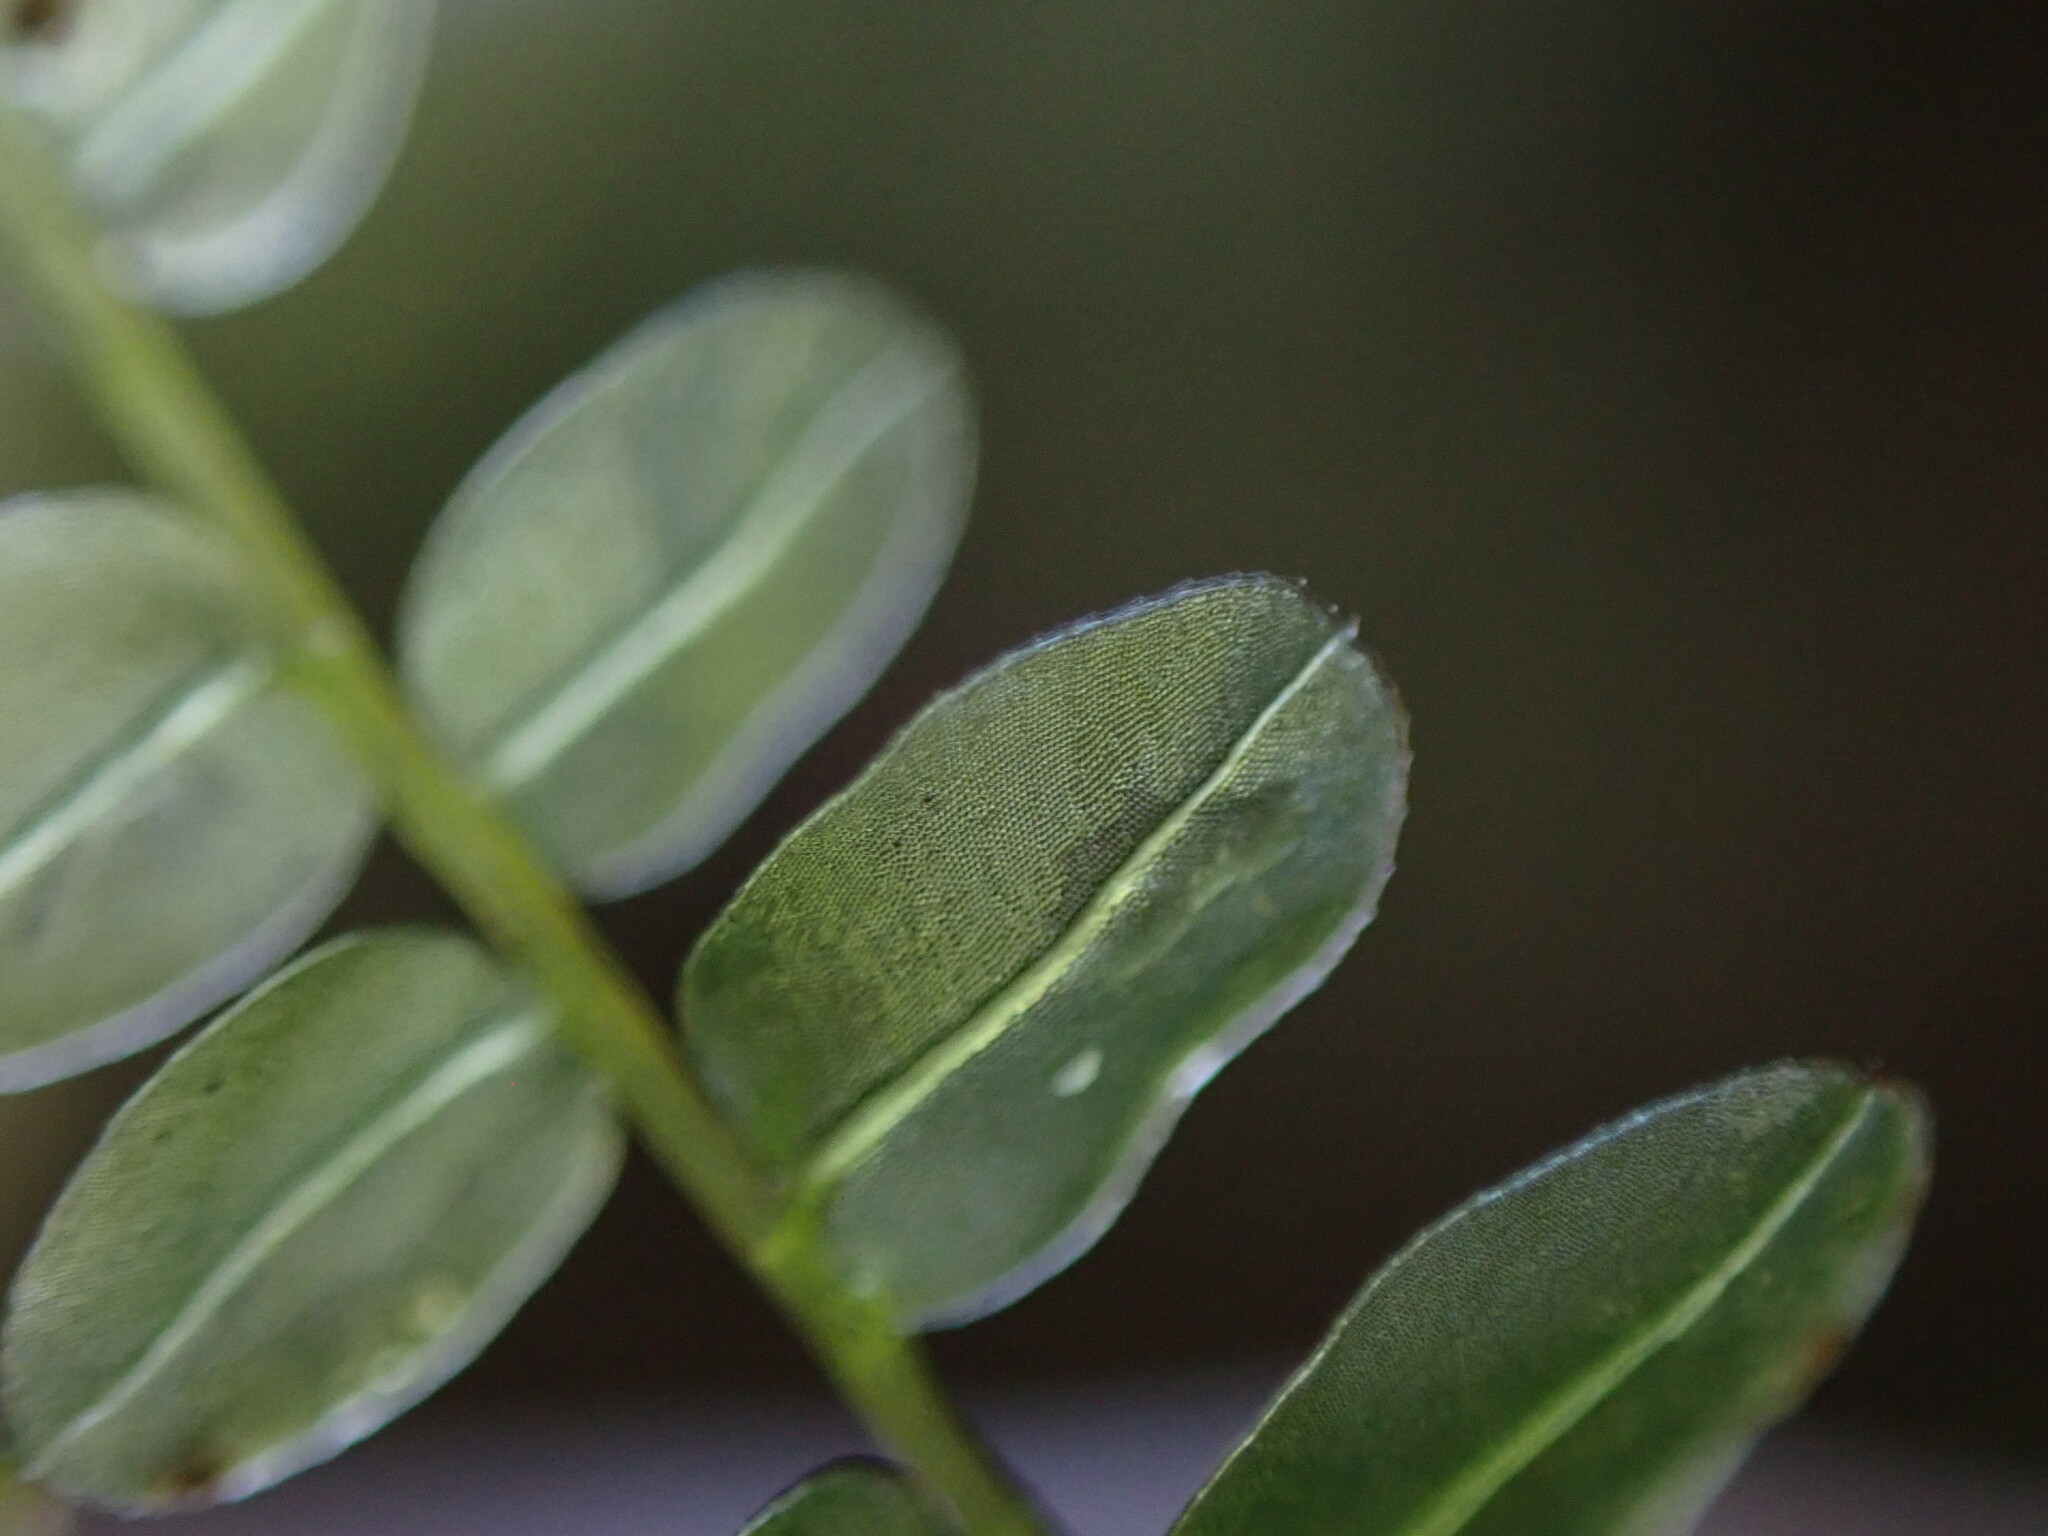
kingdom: Plantae
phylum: Bryophyta
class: Bryopsida
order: Bryales
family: Mniaceae
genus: Plagiomnium
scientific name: Plagiomnium rostratum
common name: Long-beaked leafy moss
